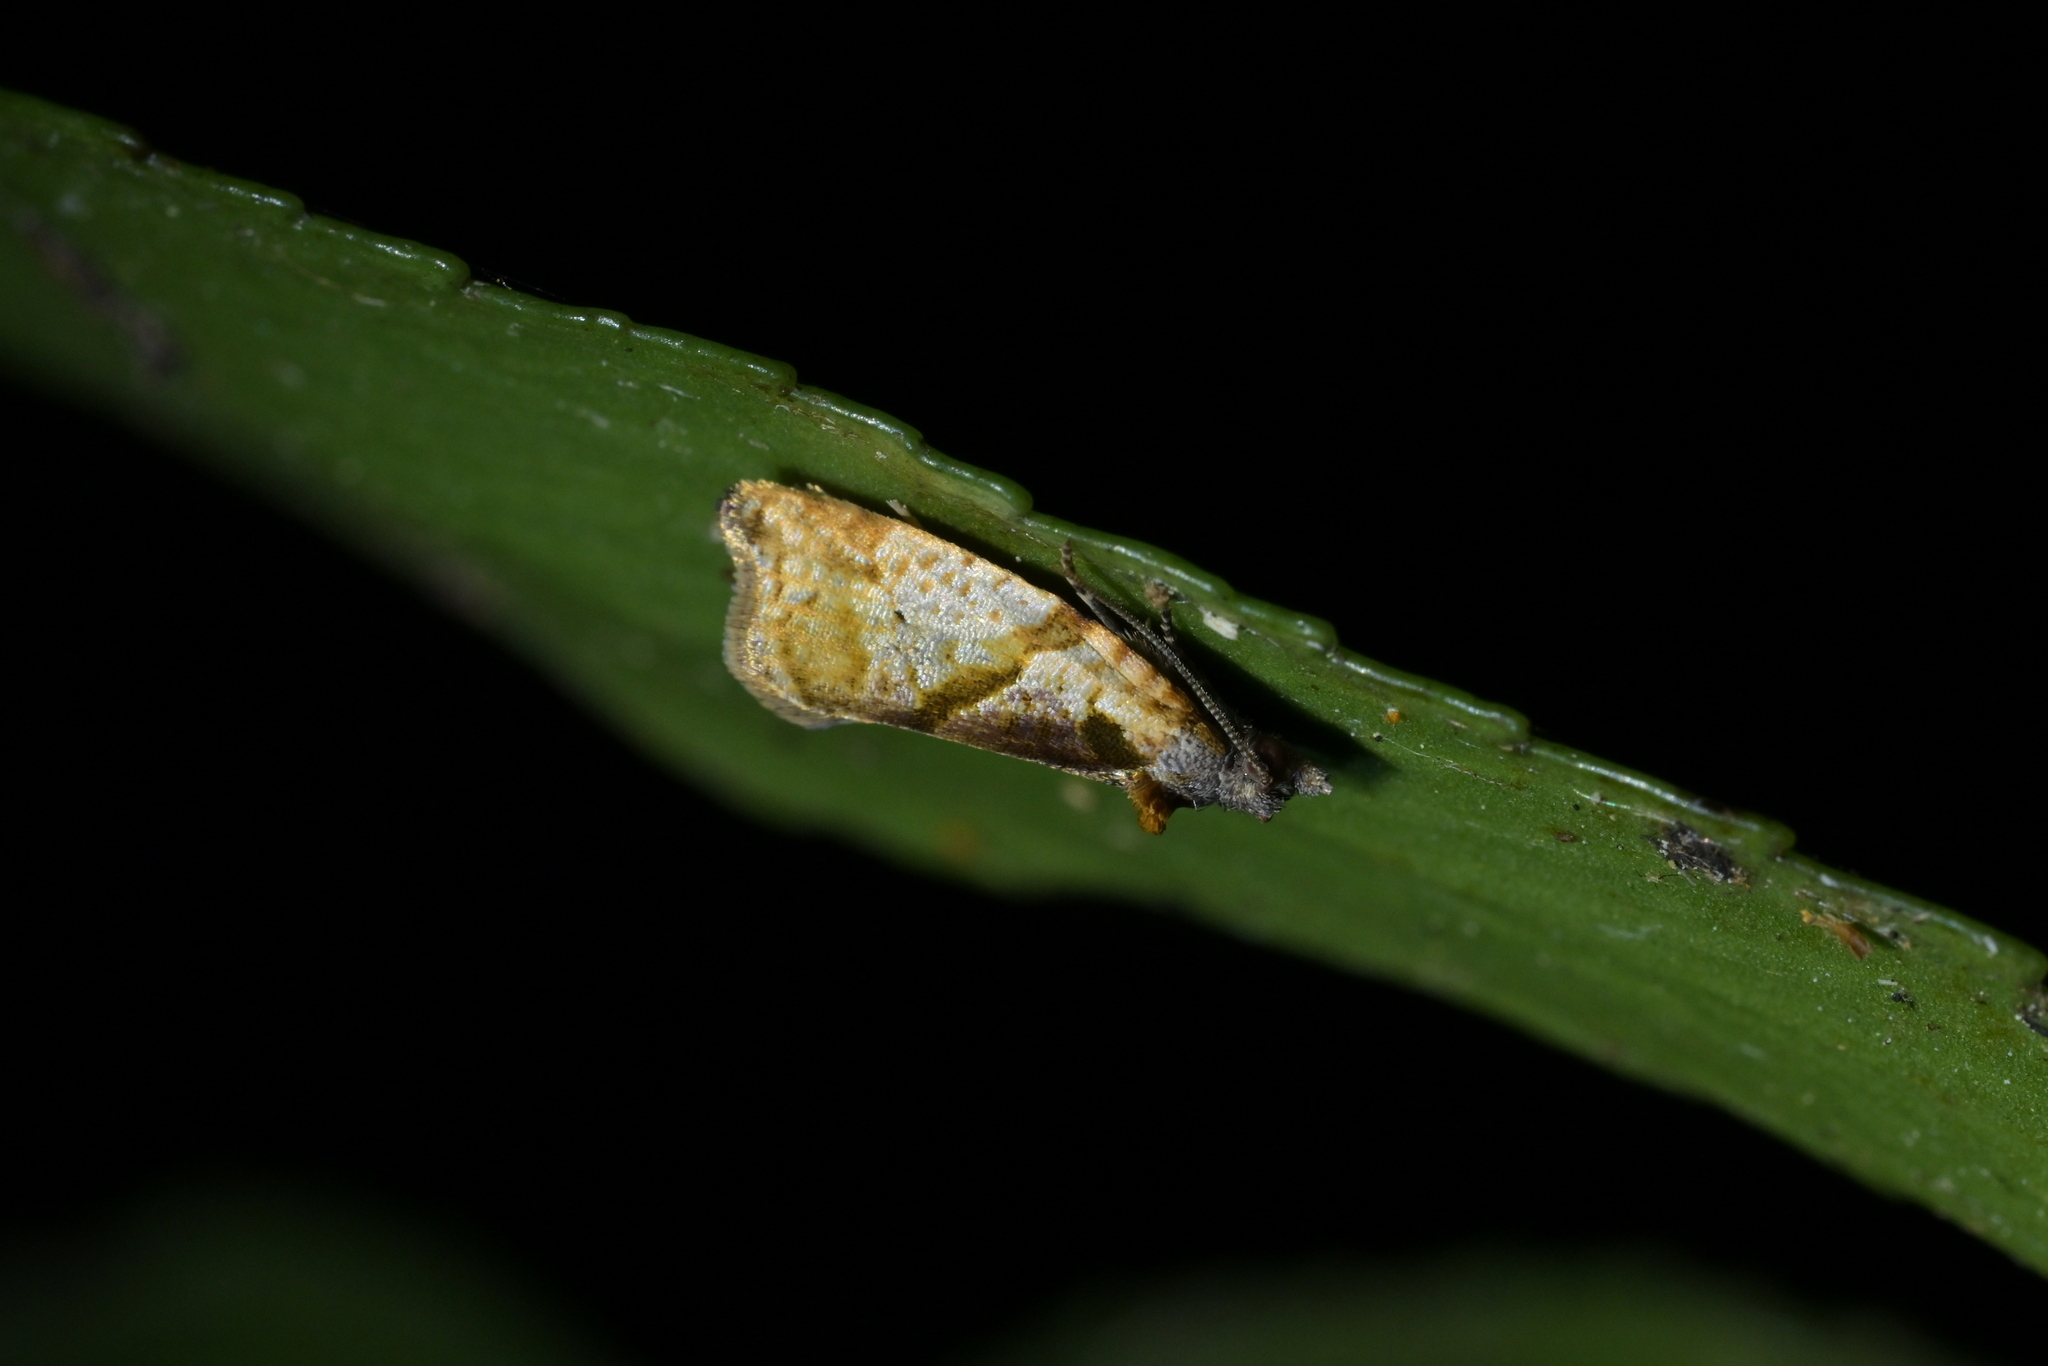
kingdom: Animalia
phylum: Arthropoda
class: Insecta
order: Lepidoptera
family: Tortricidae
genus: Pyrgotis
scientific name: Pyrgotis plagiatana
